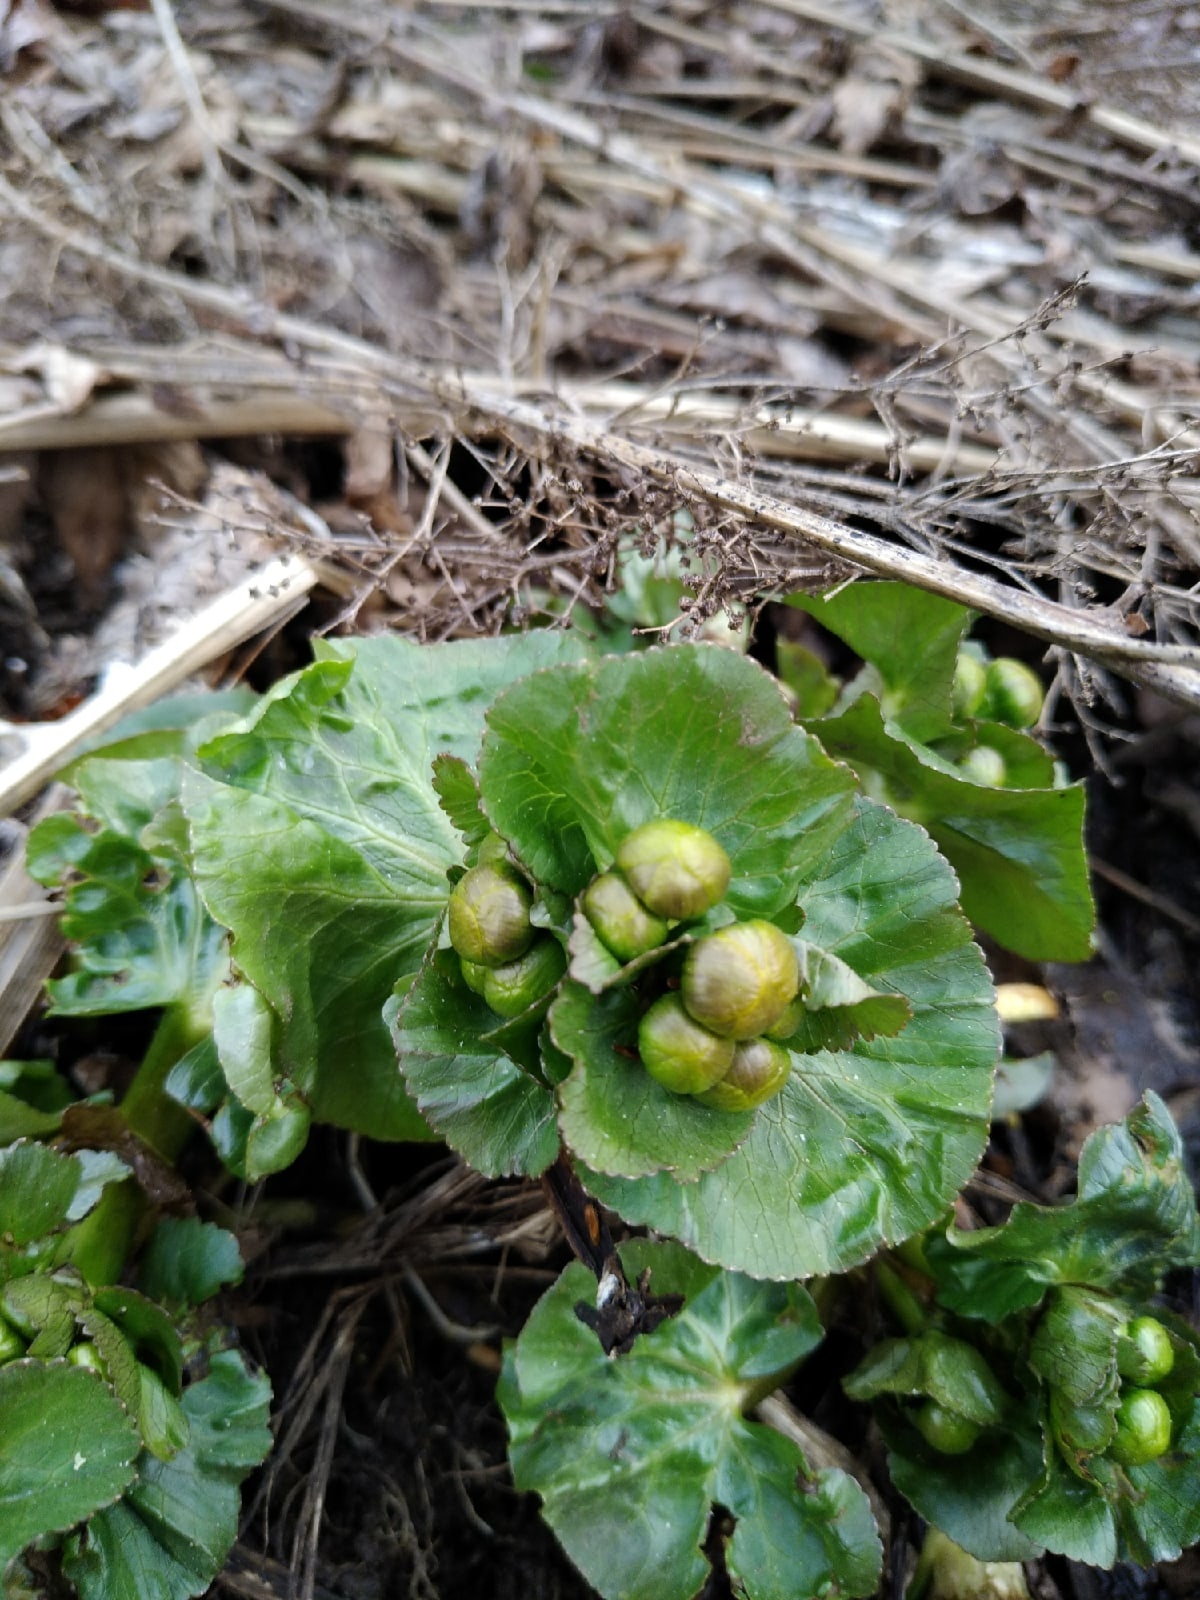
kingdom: Plantae
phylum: Tracheophyta
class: Magnoliopsida
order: Ranunculales
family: Ranunculaceae
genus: Caltha
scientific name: Caltha palustris
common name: Marsh marigold
